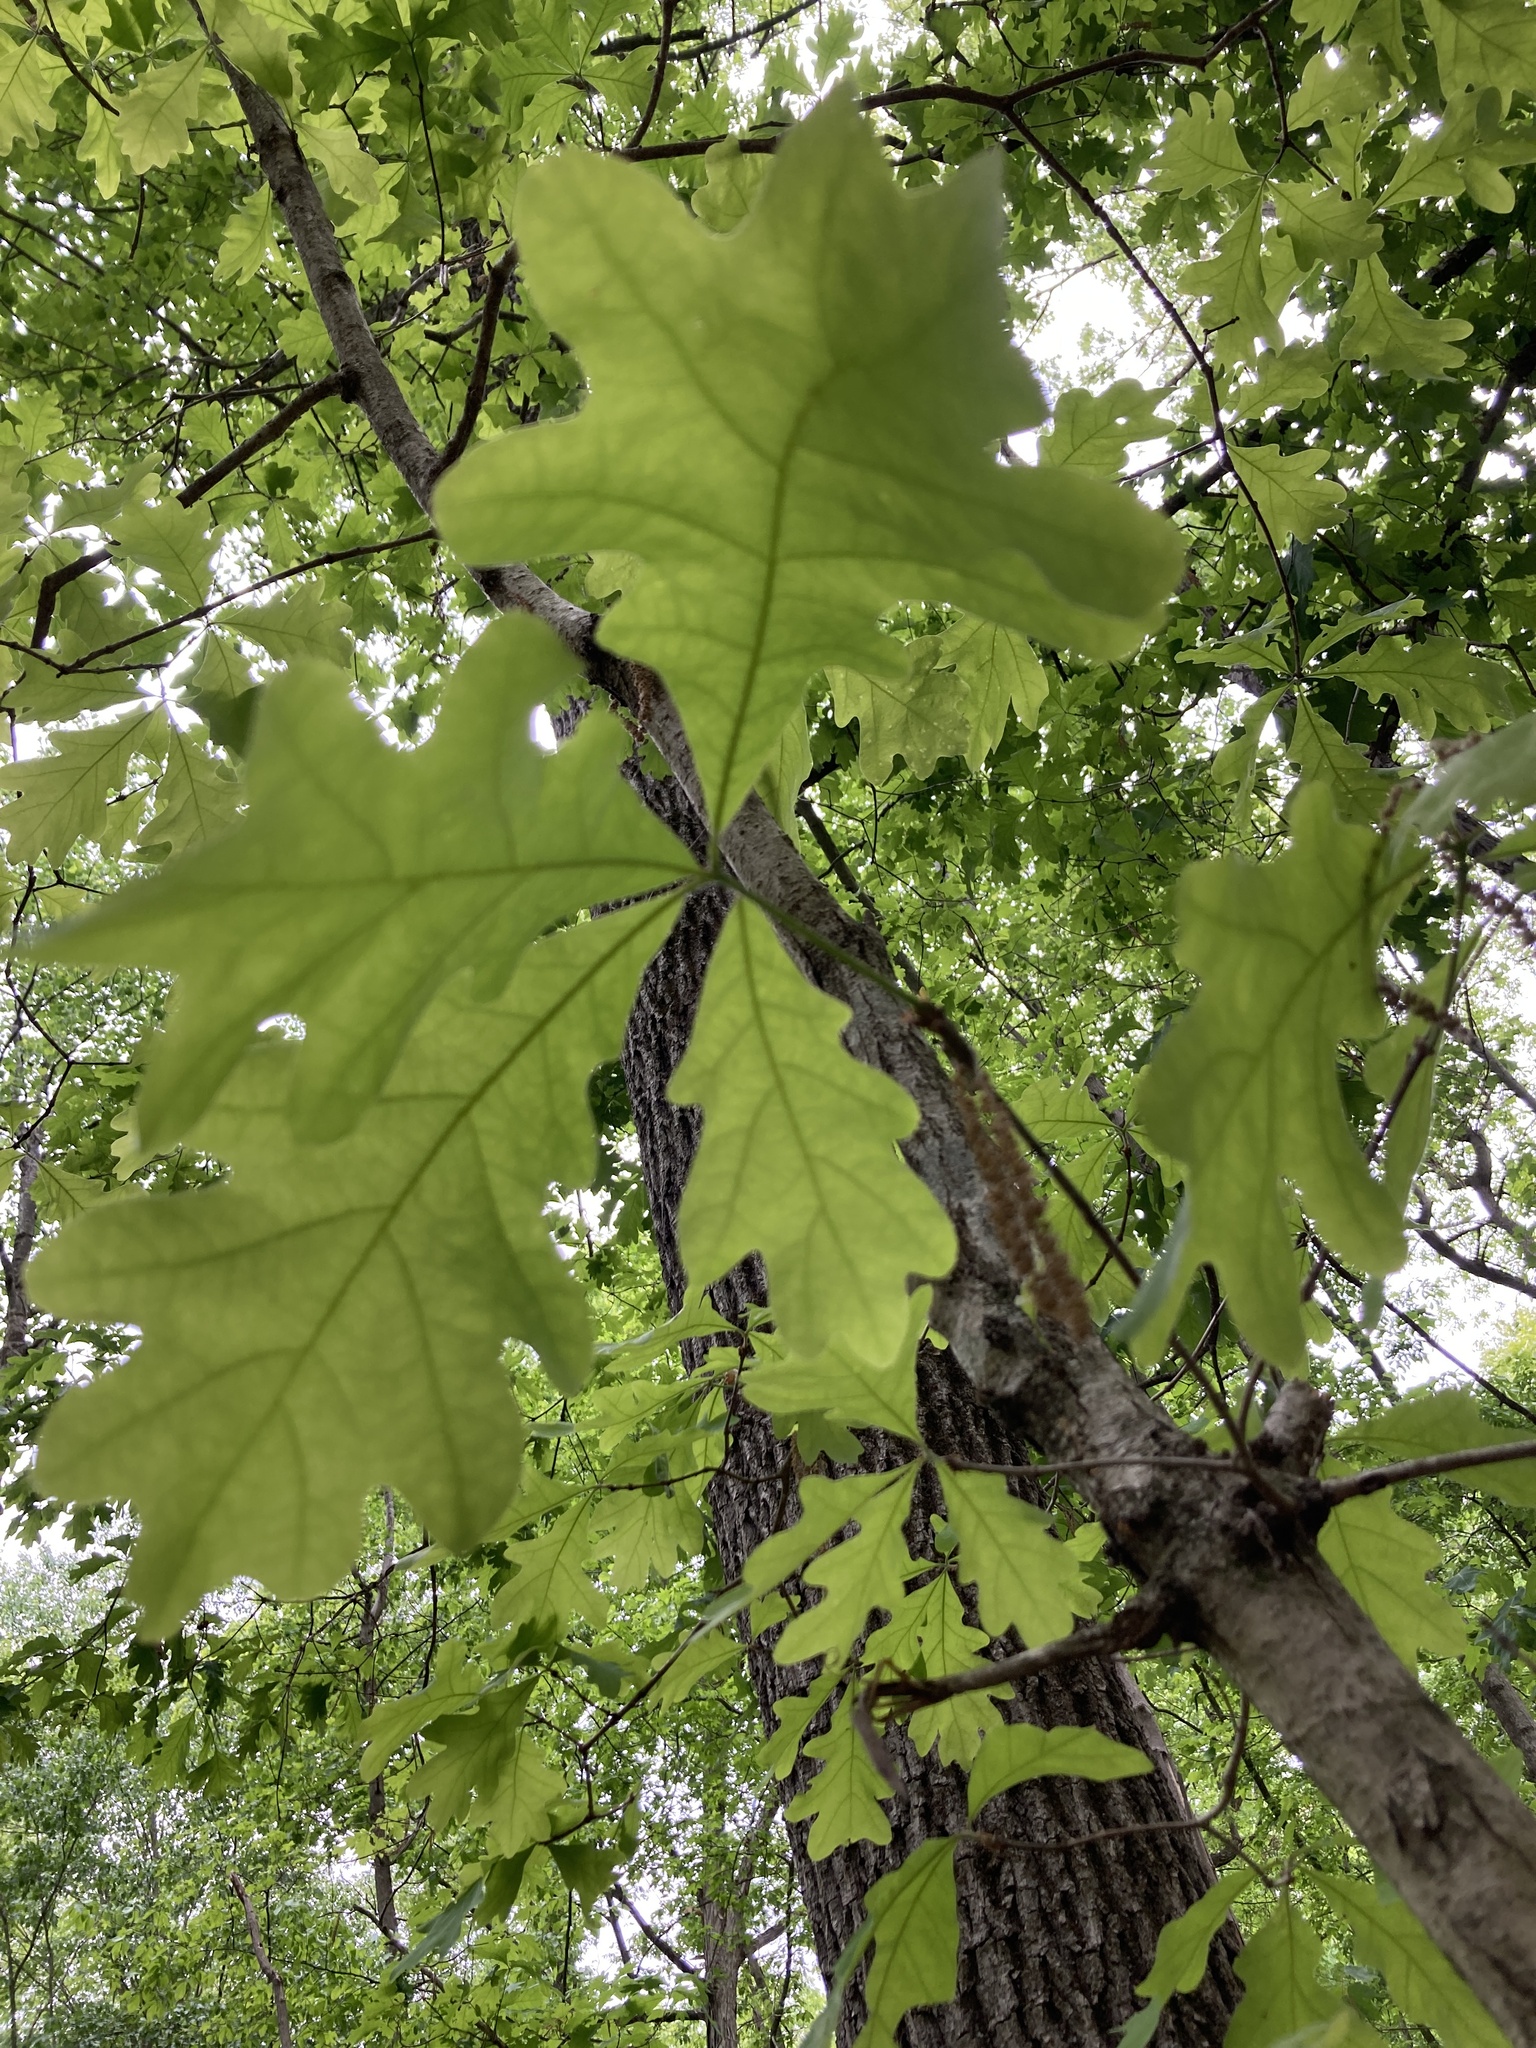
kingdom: Plantae
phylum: Tracheophyta
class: Magnoliopsida
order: Fagales
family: Fagaceae
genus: Quercus
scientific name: Quercus alba
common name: White oak
